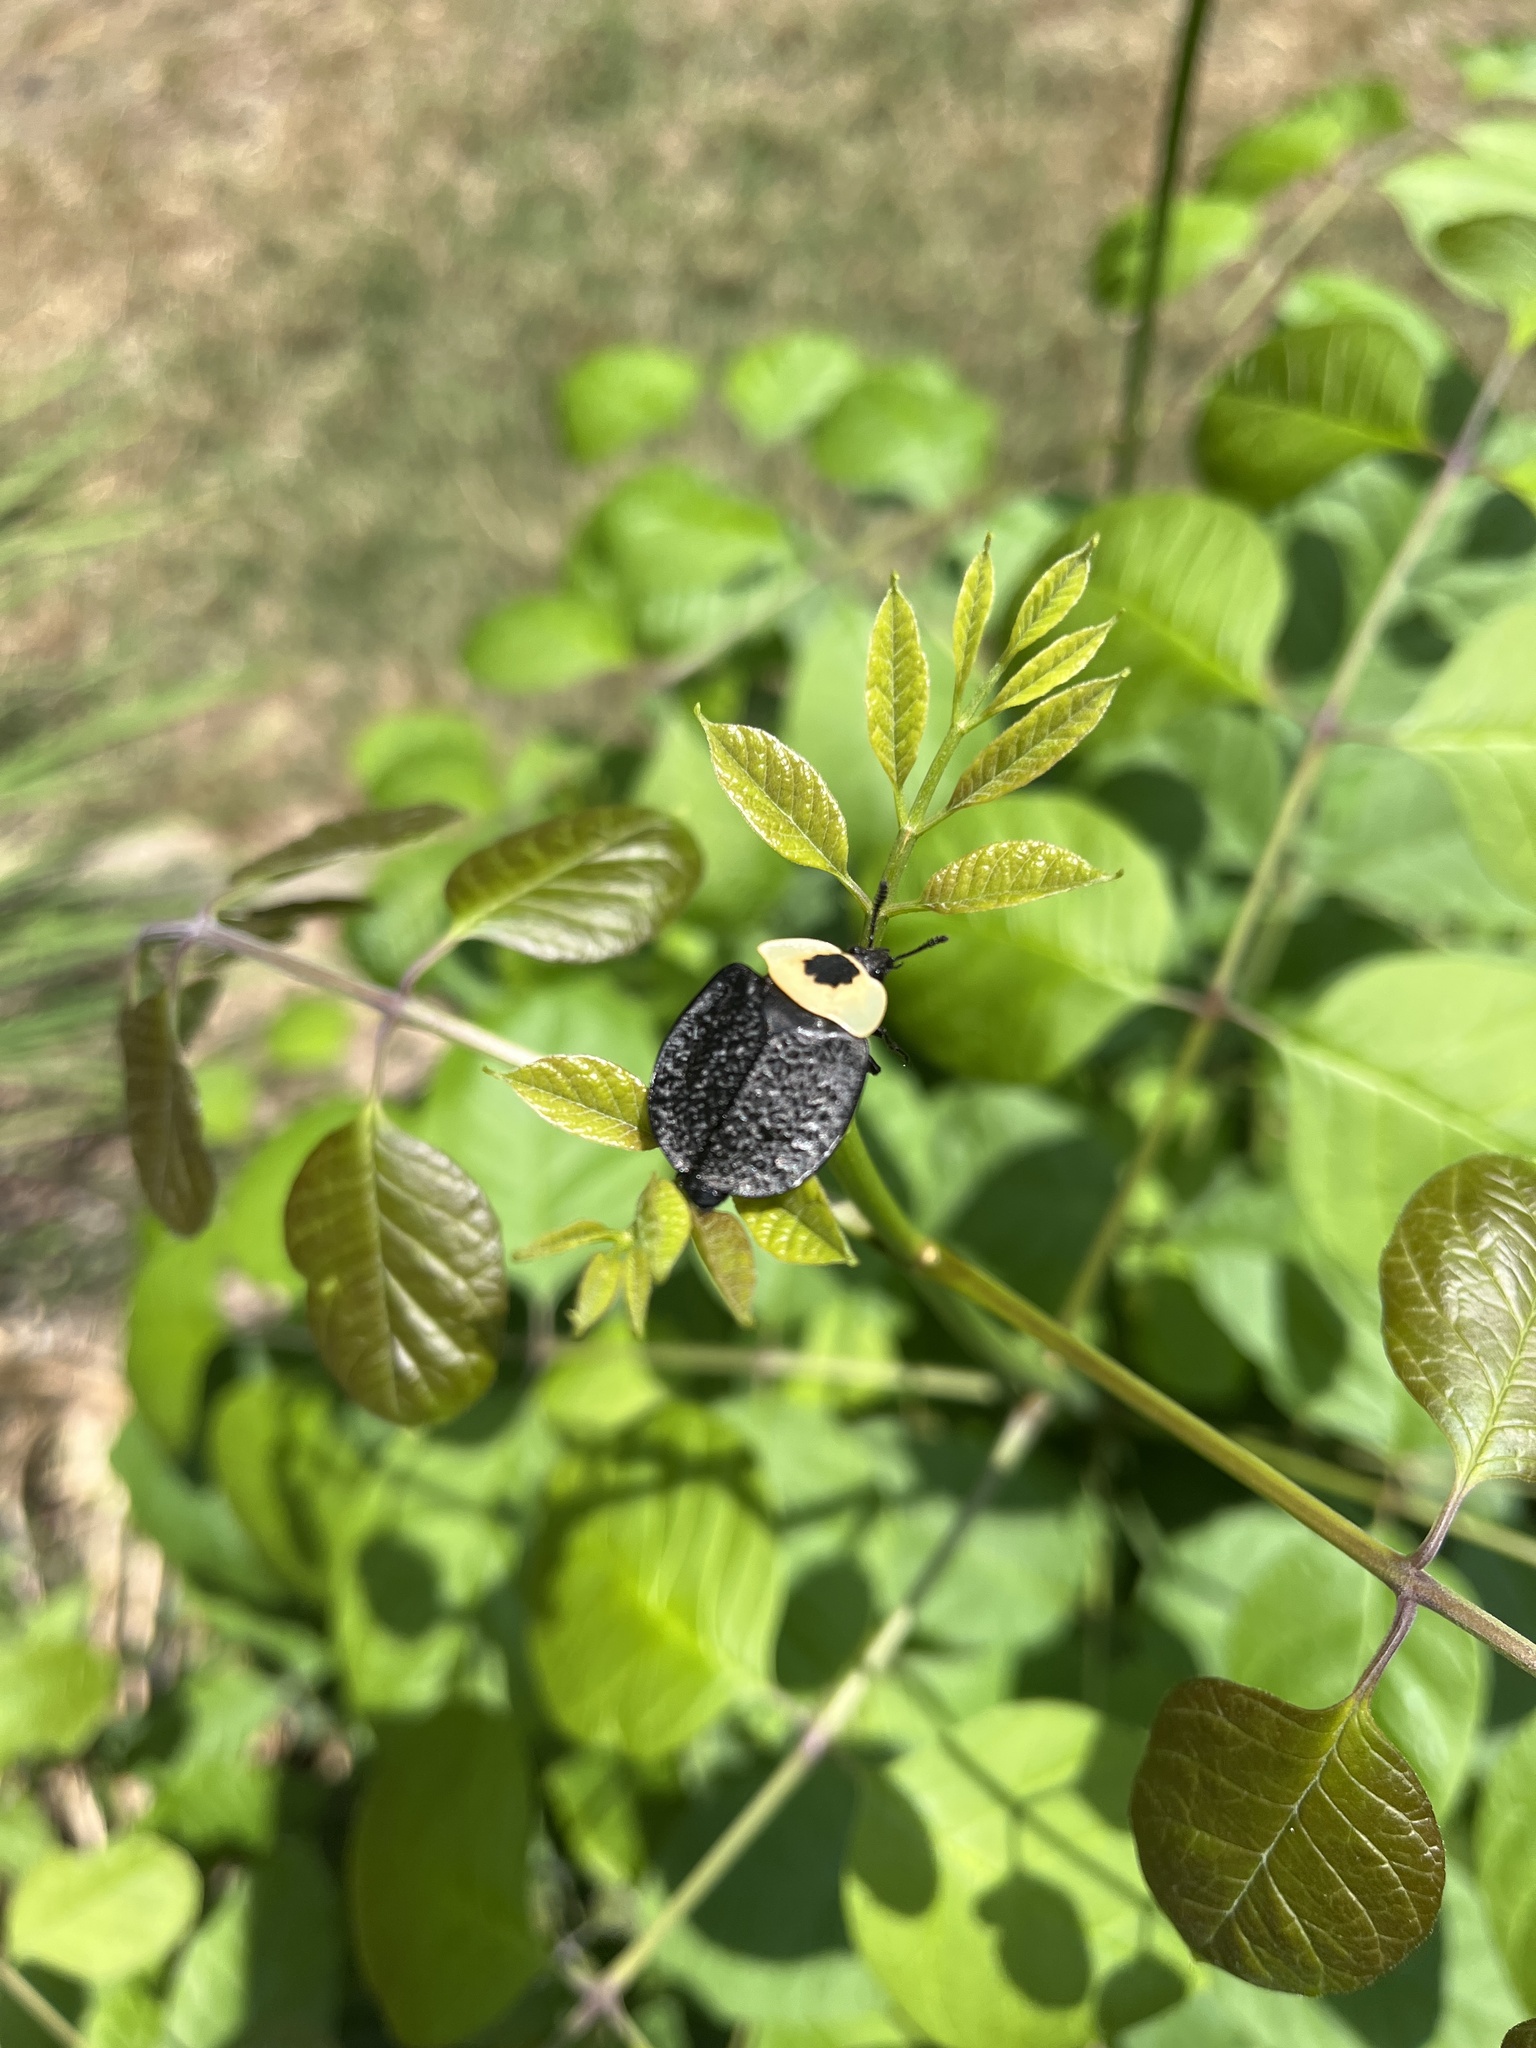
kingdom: Animalia
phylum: Arthropoda
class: Insecta
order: Coleoptera
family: Staphylinidae
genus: Necrophila
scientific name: Necrophila americana
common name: American carrion beetle
